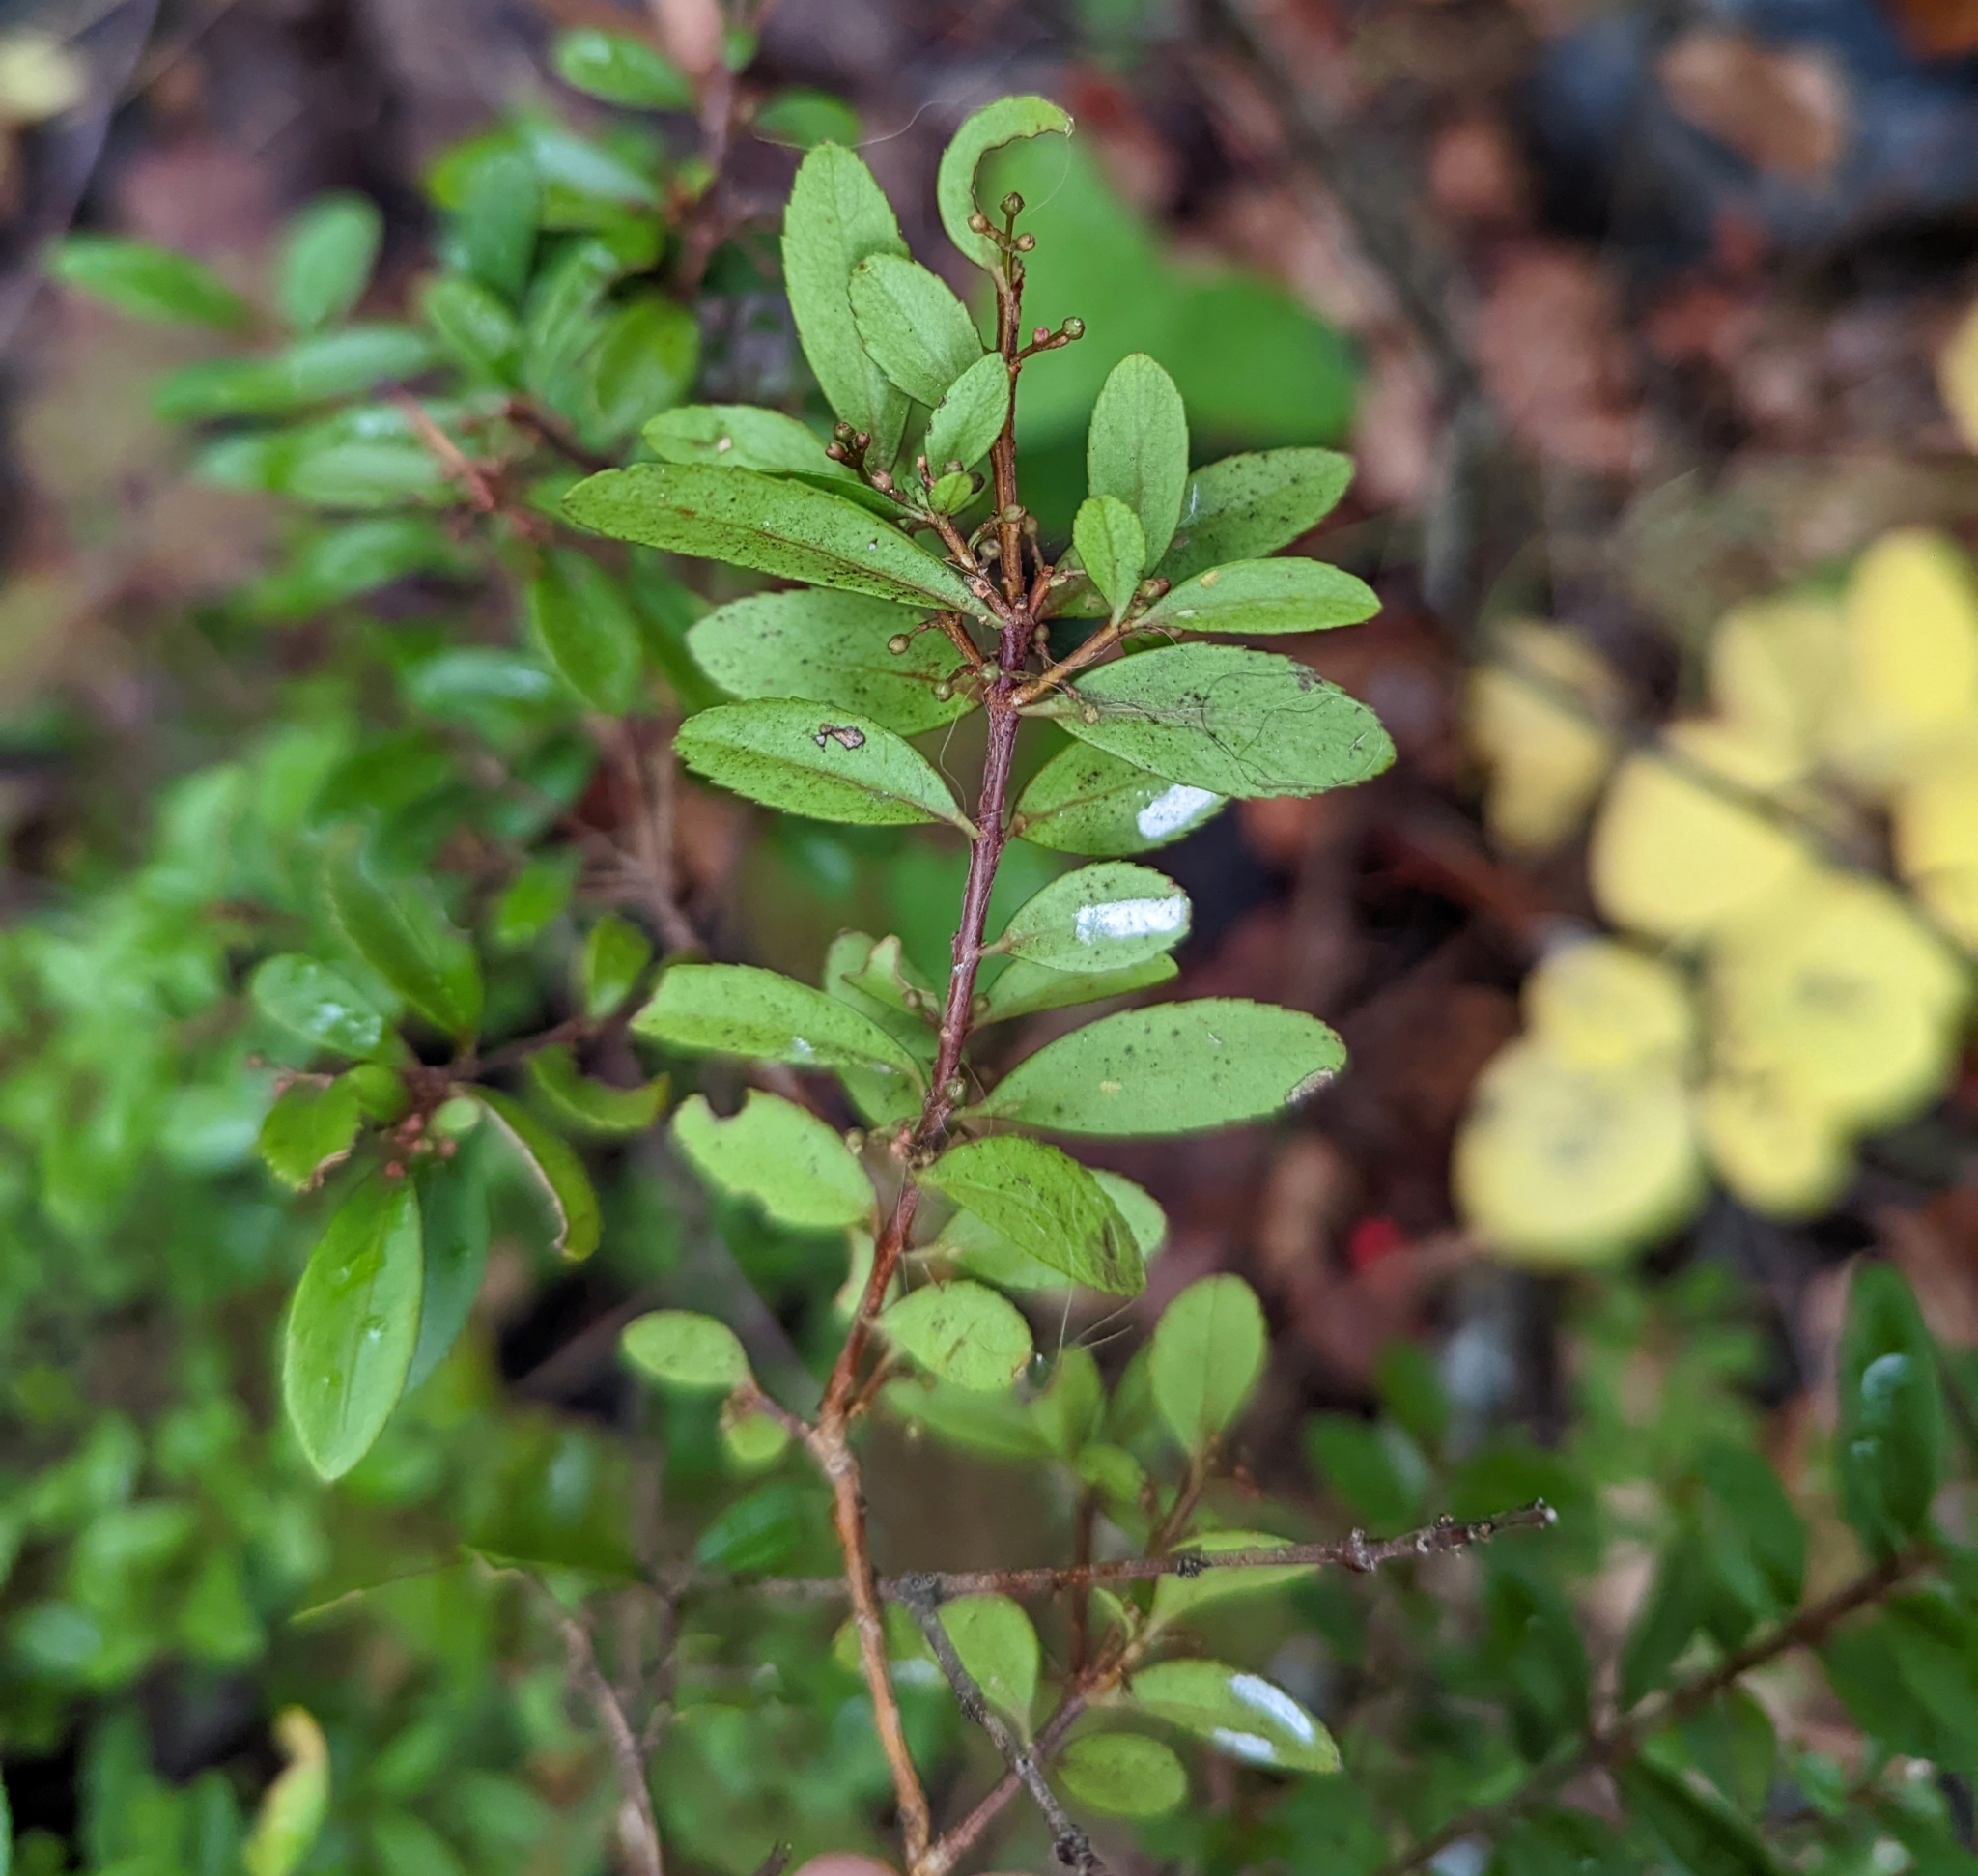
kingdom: Plantae
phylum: Tracheophyta
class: Magnoliopsida
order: Celastrales
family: Celastraceae
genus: Paxistima
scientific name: Paxistima myrsinites
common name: Mountain-lover
